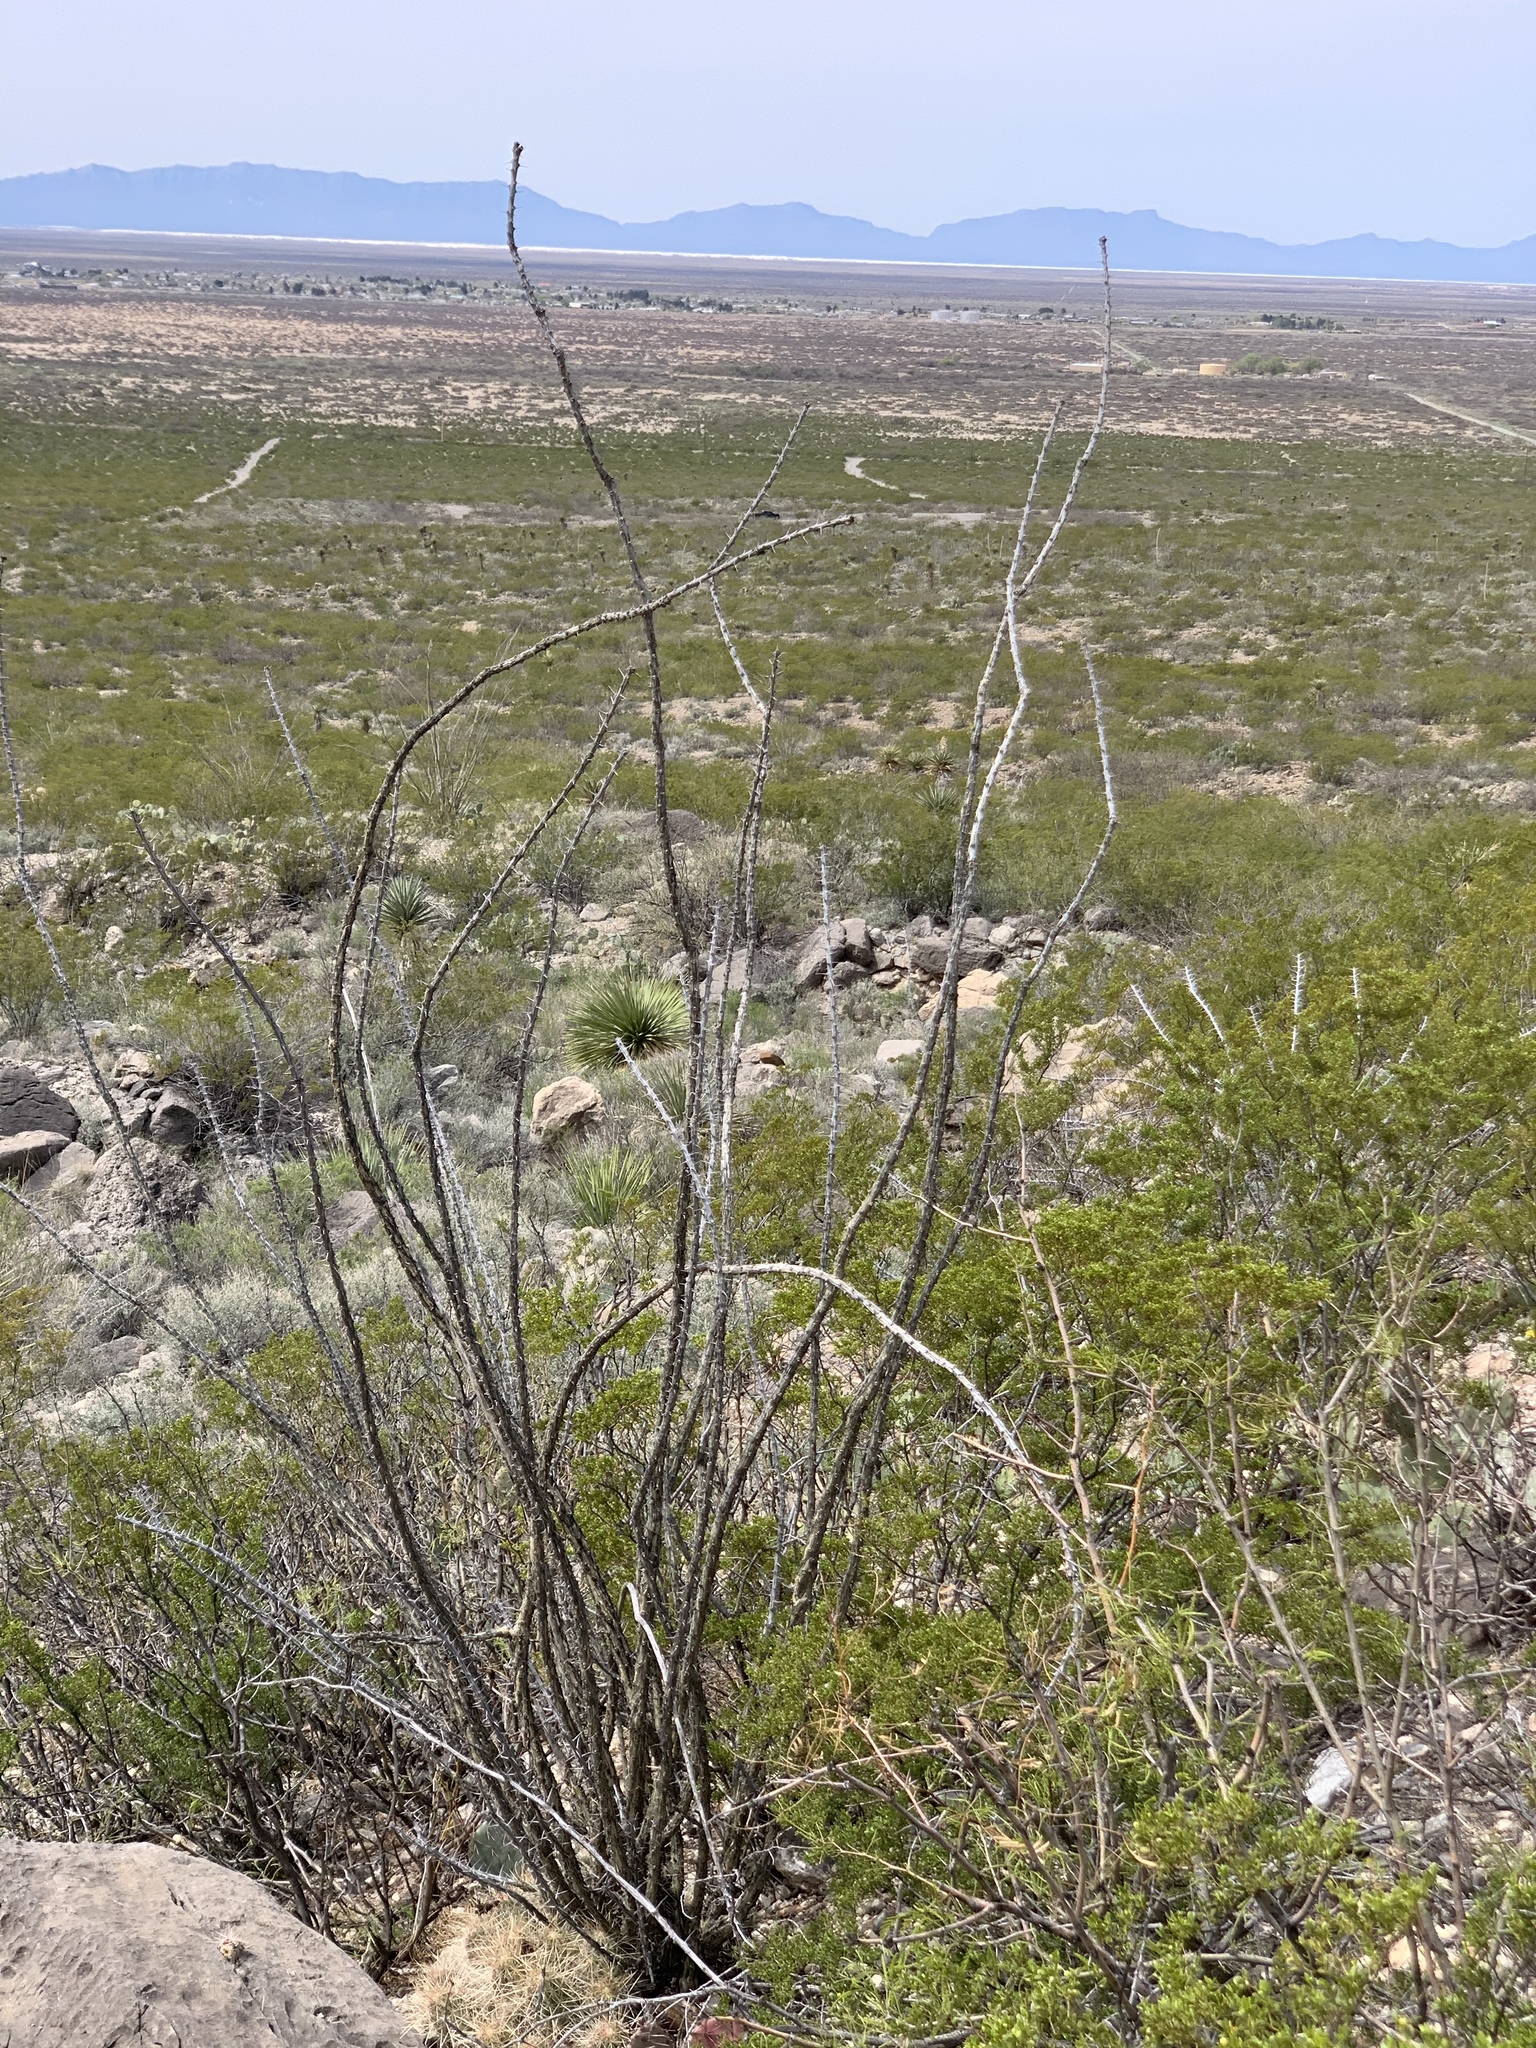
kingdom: Plantae
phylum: Tracheophyta
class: Magnoliopsida
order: Ericales
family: Fouquieriaceae
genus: Fouquieria
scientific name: Fouquieria splendens
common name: Vine-cactus
